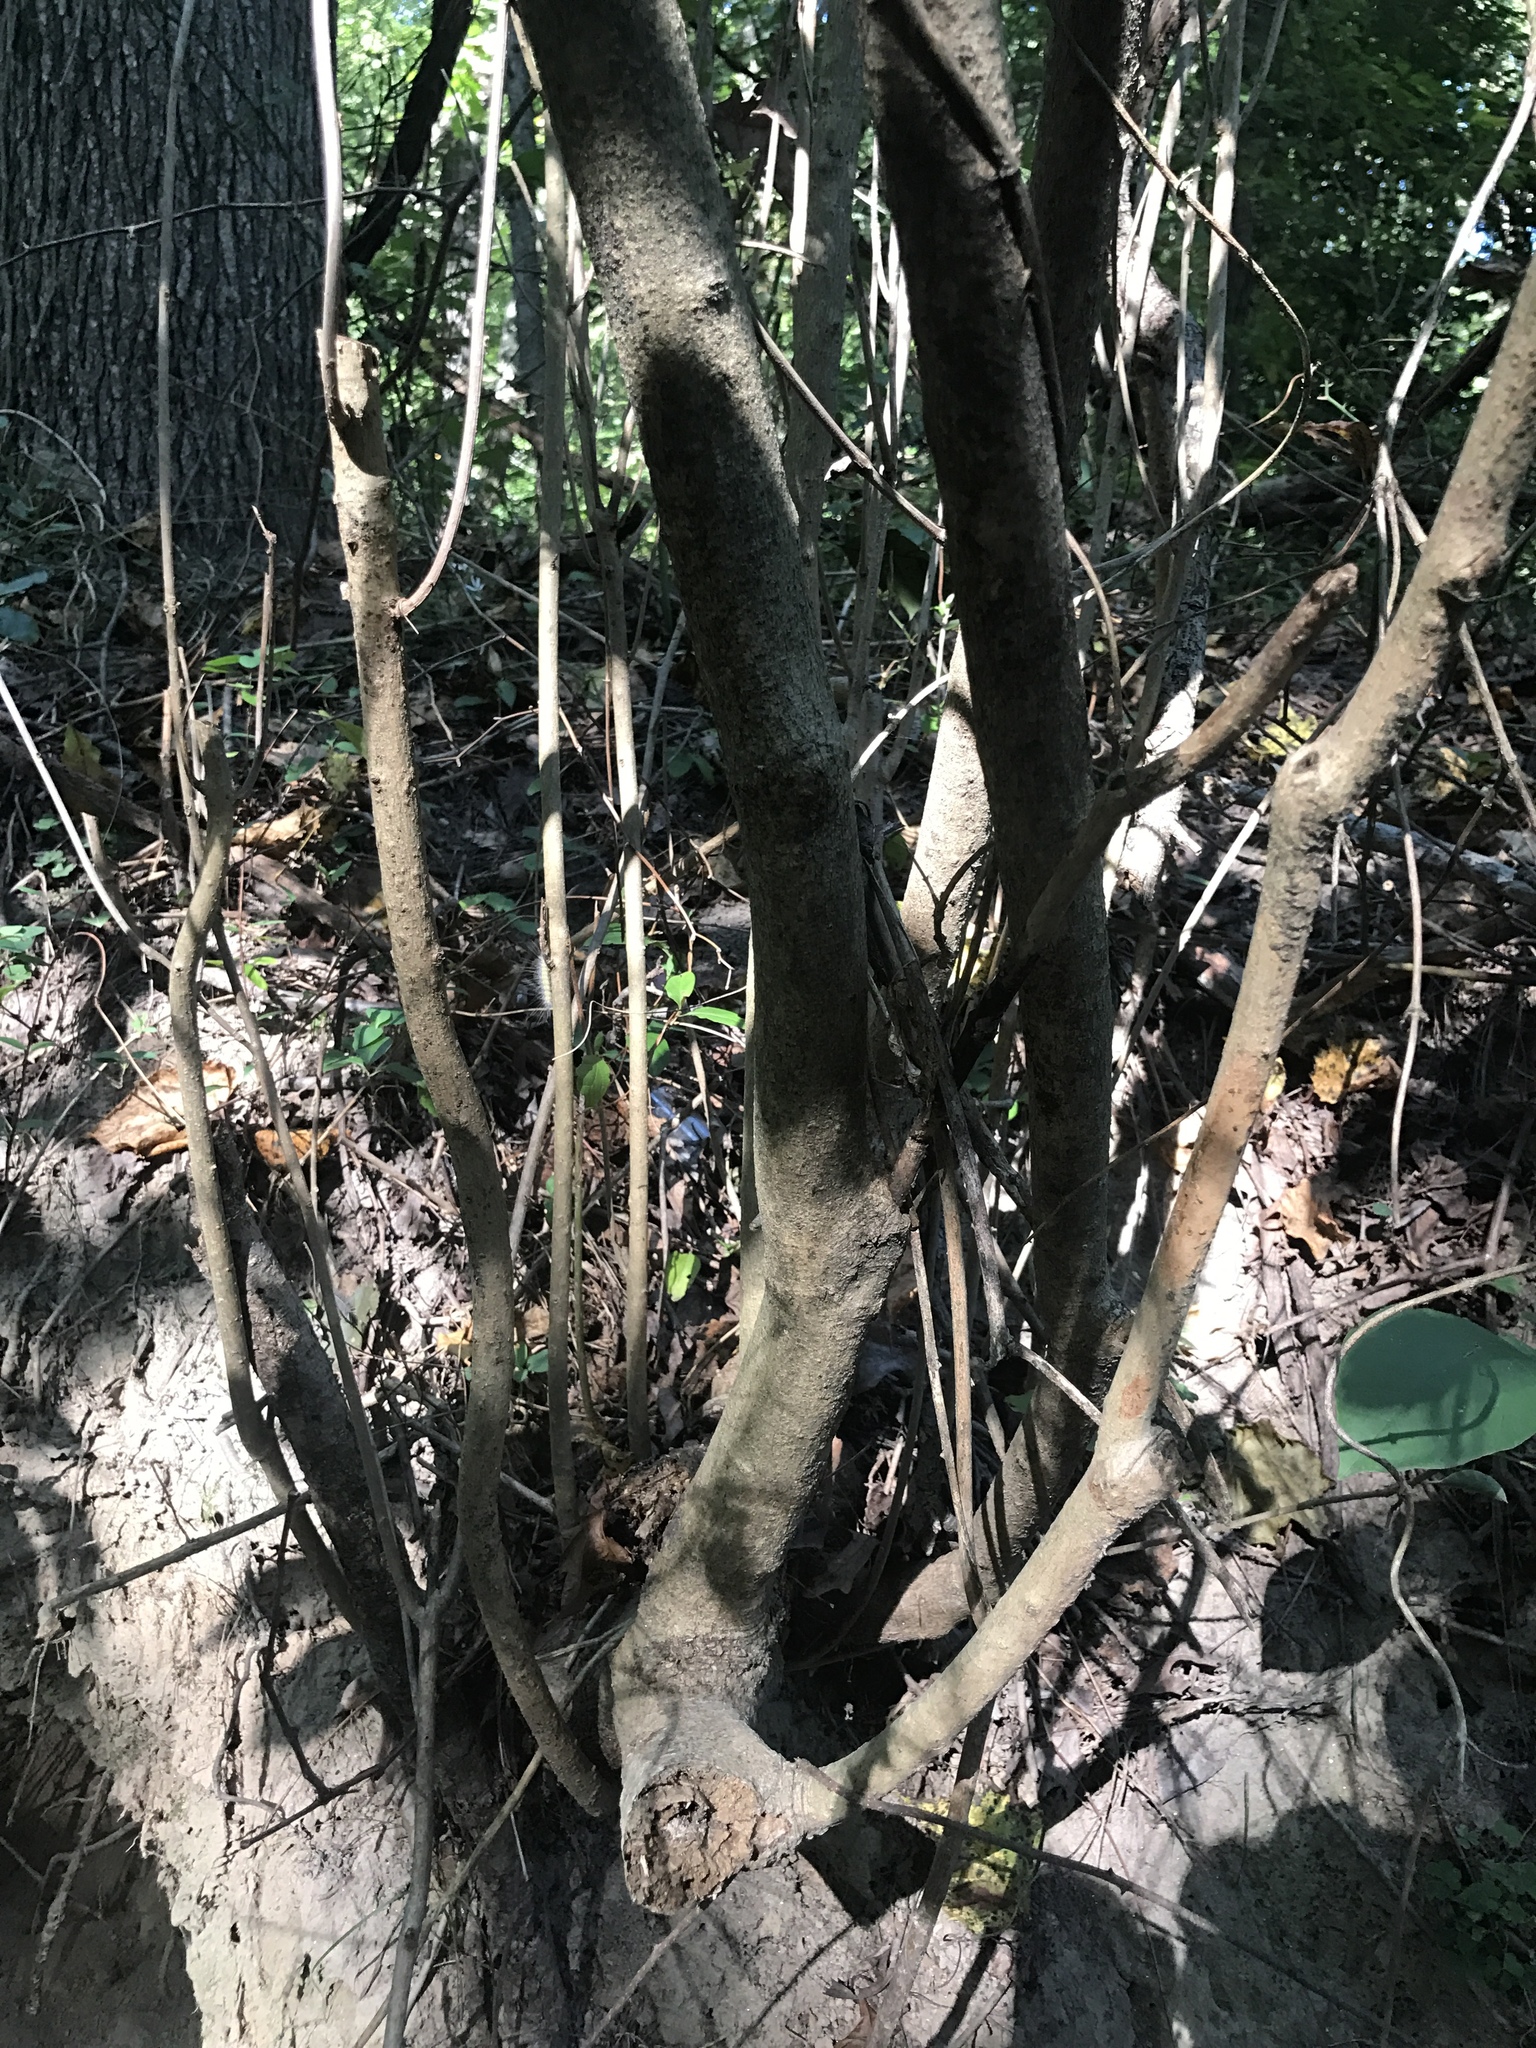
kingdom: Plantae
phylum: Tracheophyta
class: Magnoliopsida
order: Lamiales
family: Oleaceae
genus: Chionanthus
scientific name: Chionanthus virginicus
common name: American fringetree
